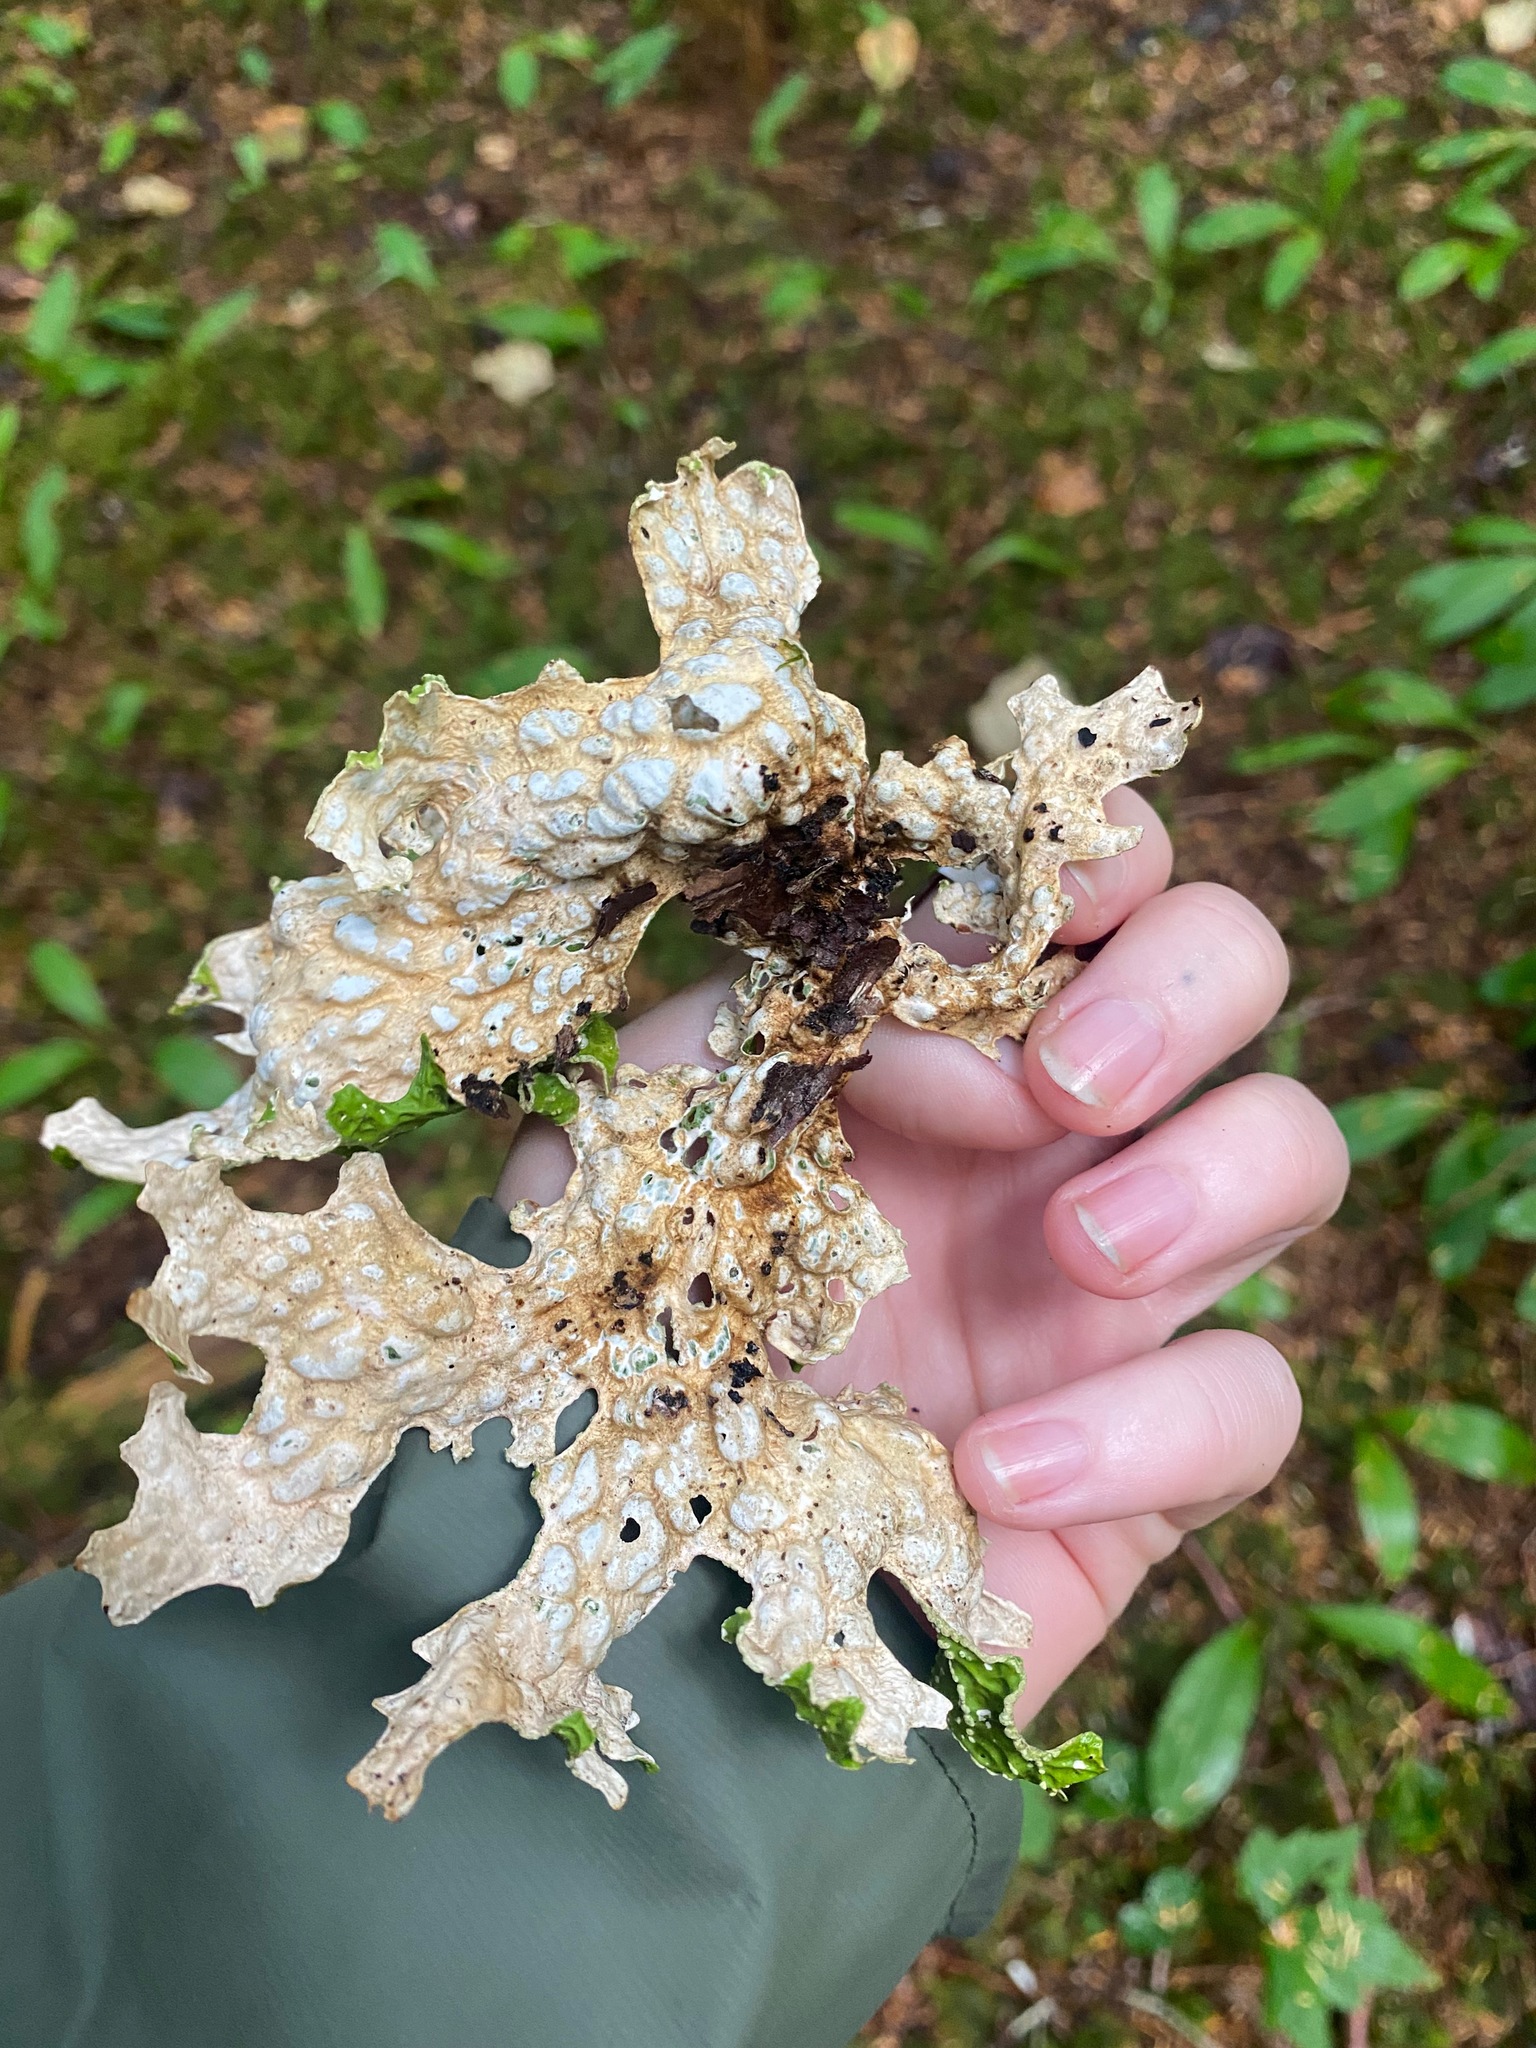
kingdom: Fungi
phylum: Ascomycota
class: Lecanoromycetes
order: Peltigerales
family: Lobariaceae
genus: Lobaria
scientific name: Lobaria pulmonaria
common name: Lungwort
